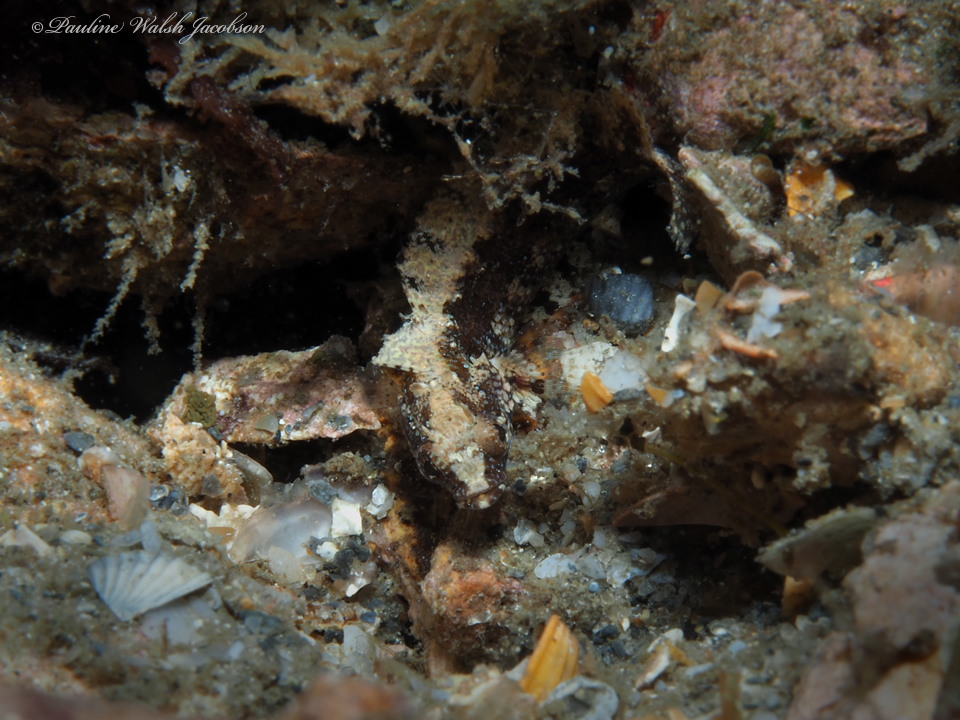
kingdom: Animalia
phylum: Chordata
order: Perciformes
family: Labrisomidae
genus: Paraclinus
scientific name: Paraclinus fasciatus
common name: Banded blenny
